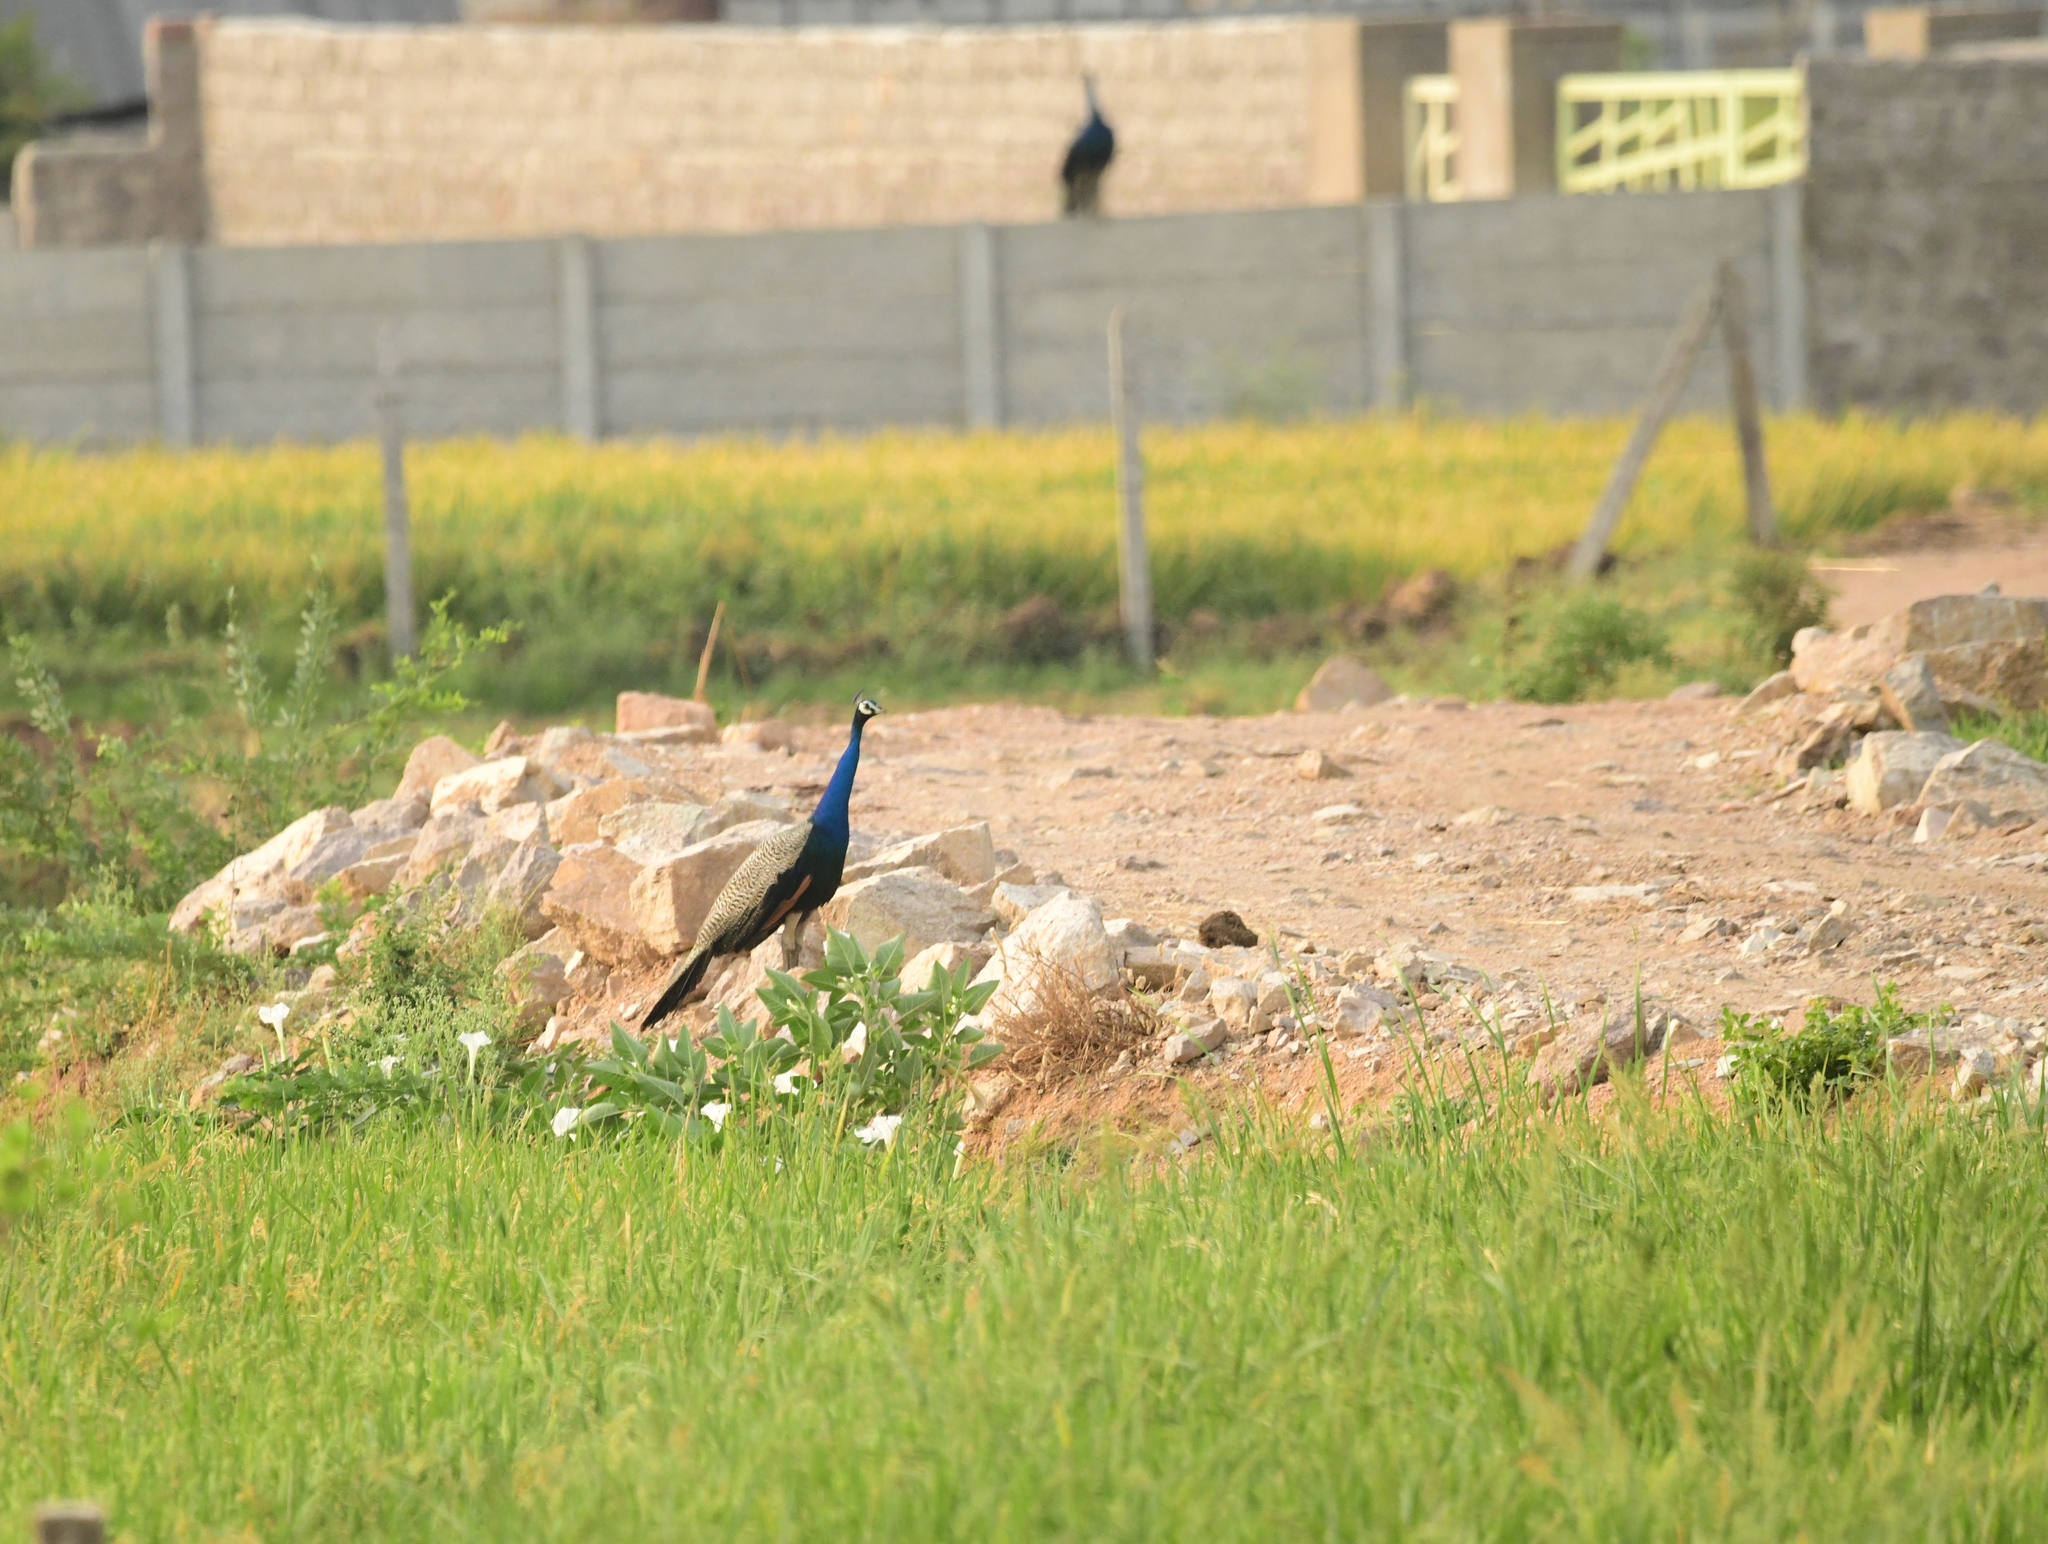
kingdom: Animalia
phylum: Chordata
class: Aves
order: Galliformes
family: Phasianidae
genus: Pavo
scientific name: Pavo cristatus
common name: Indian peafowl
